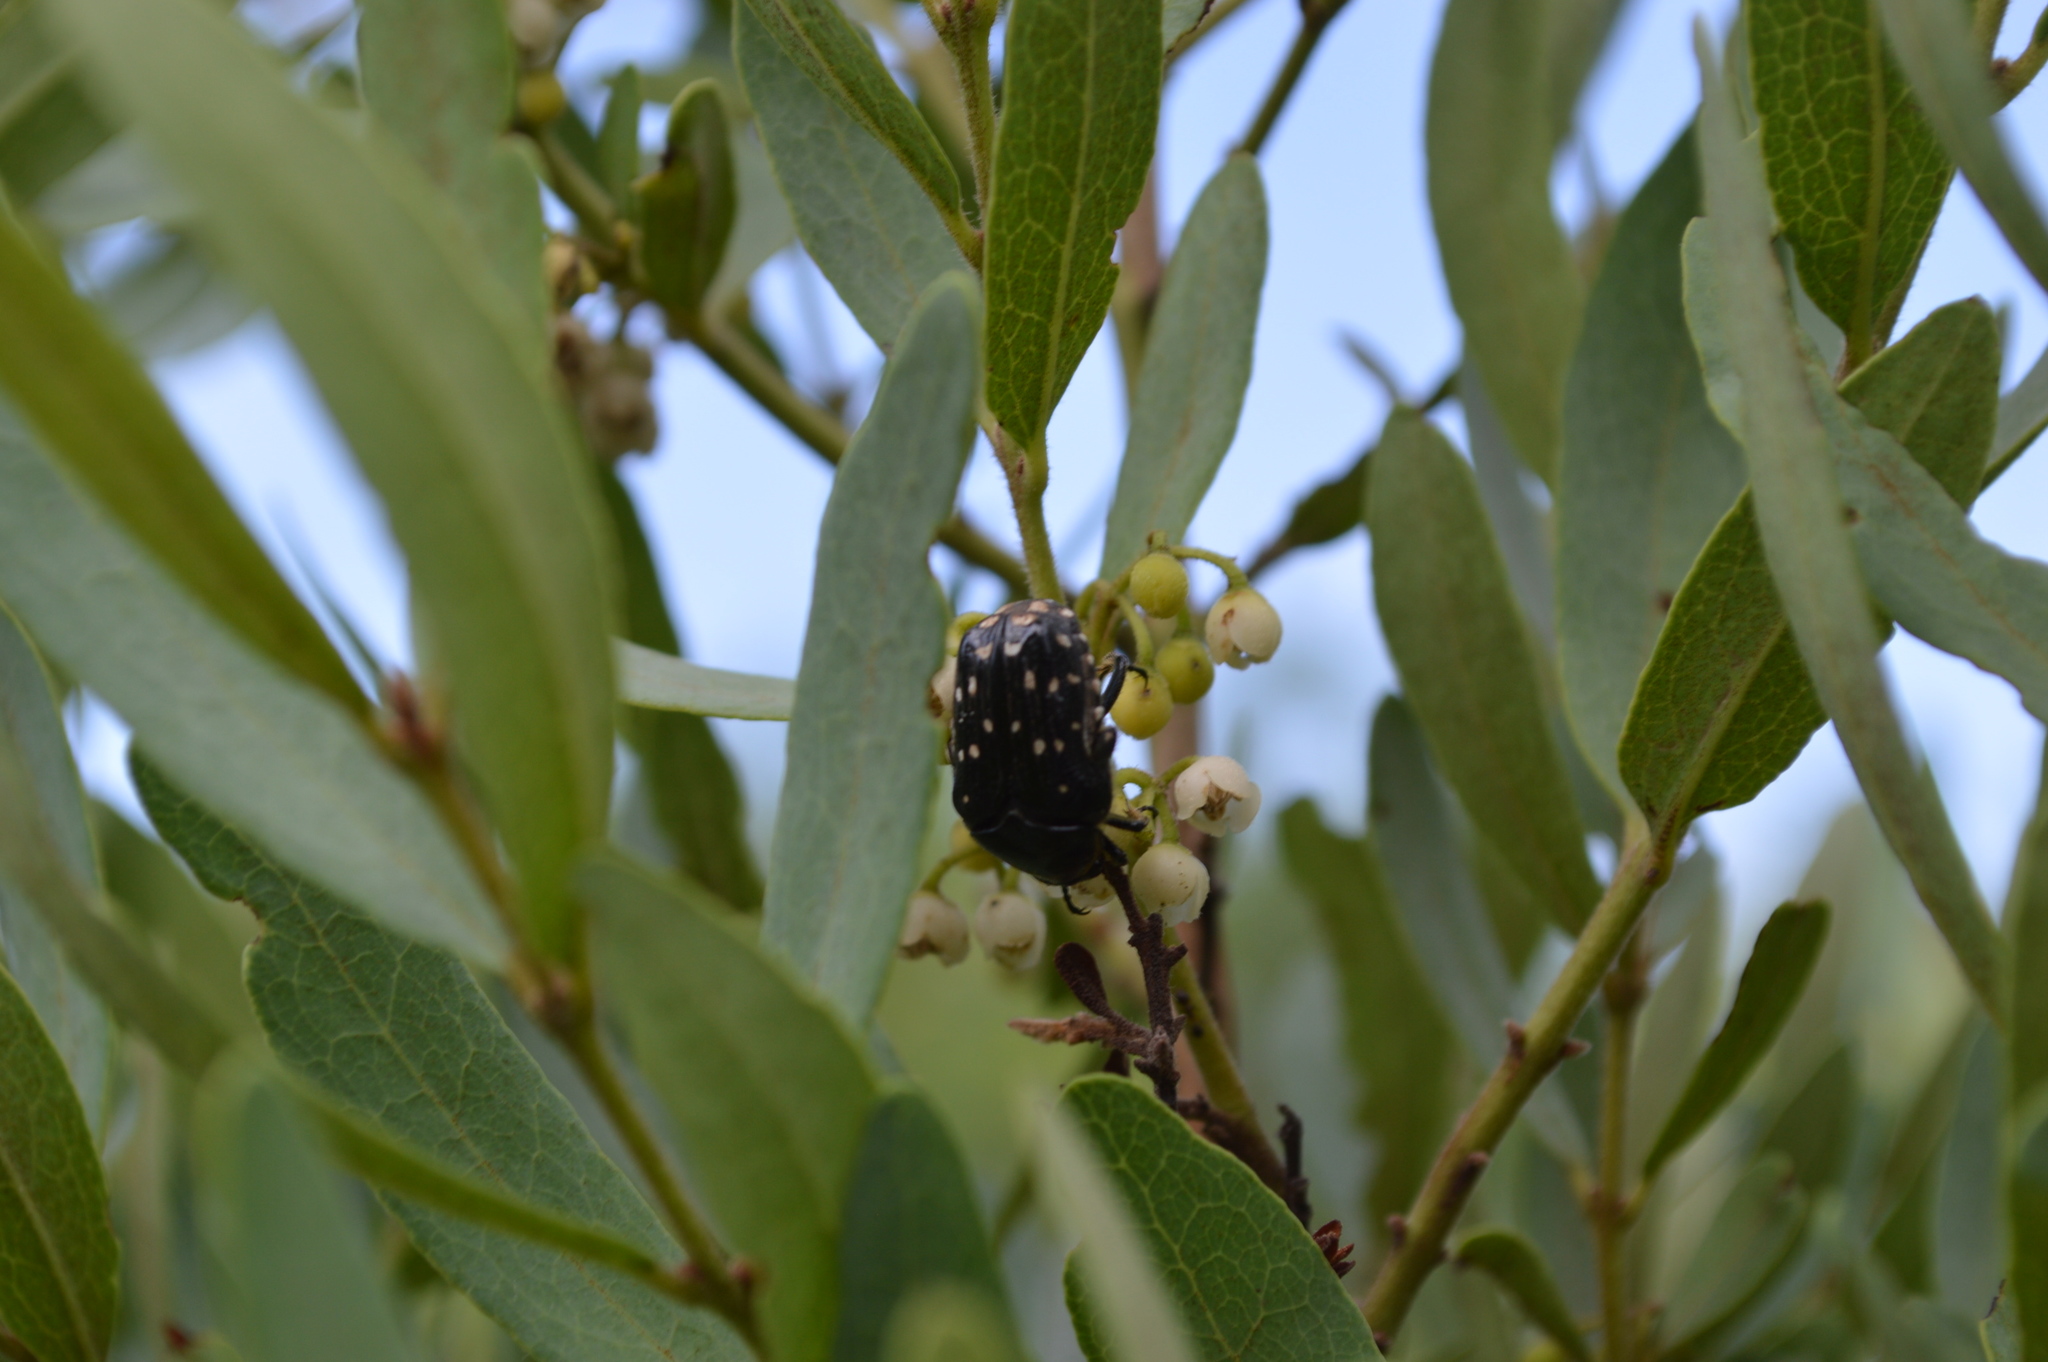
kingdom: Animalia
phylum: Arthropoda
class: Insecta
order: Coleoptera
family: Scarabaeidae
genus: Clinteroides
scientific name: Clinteroides permutans
